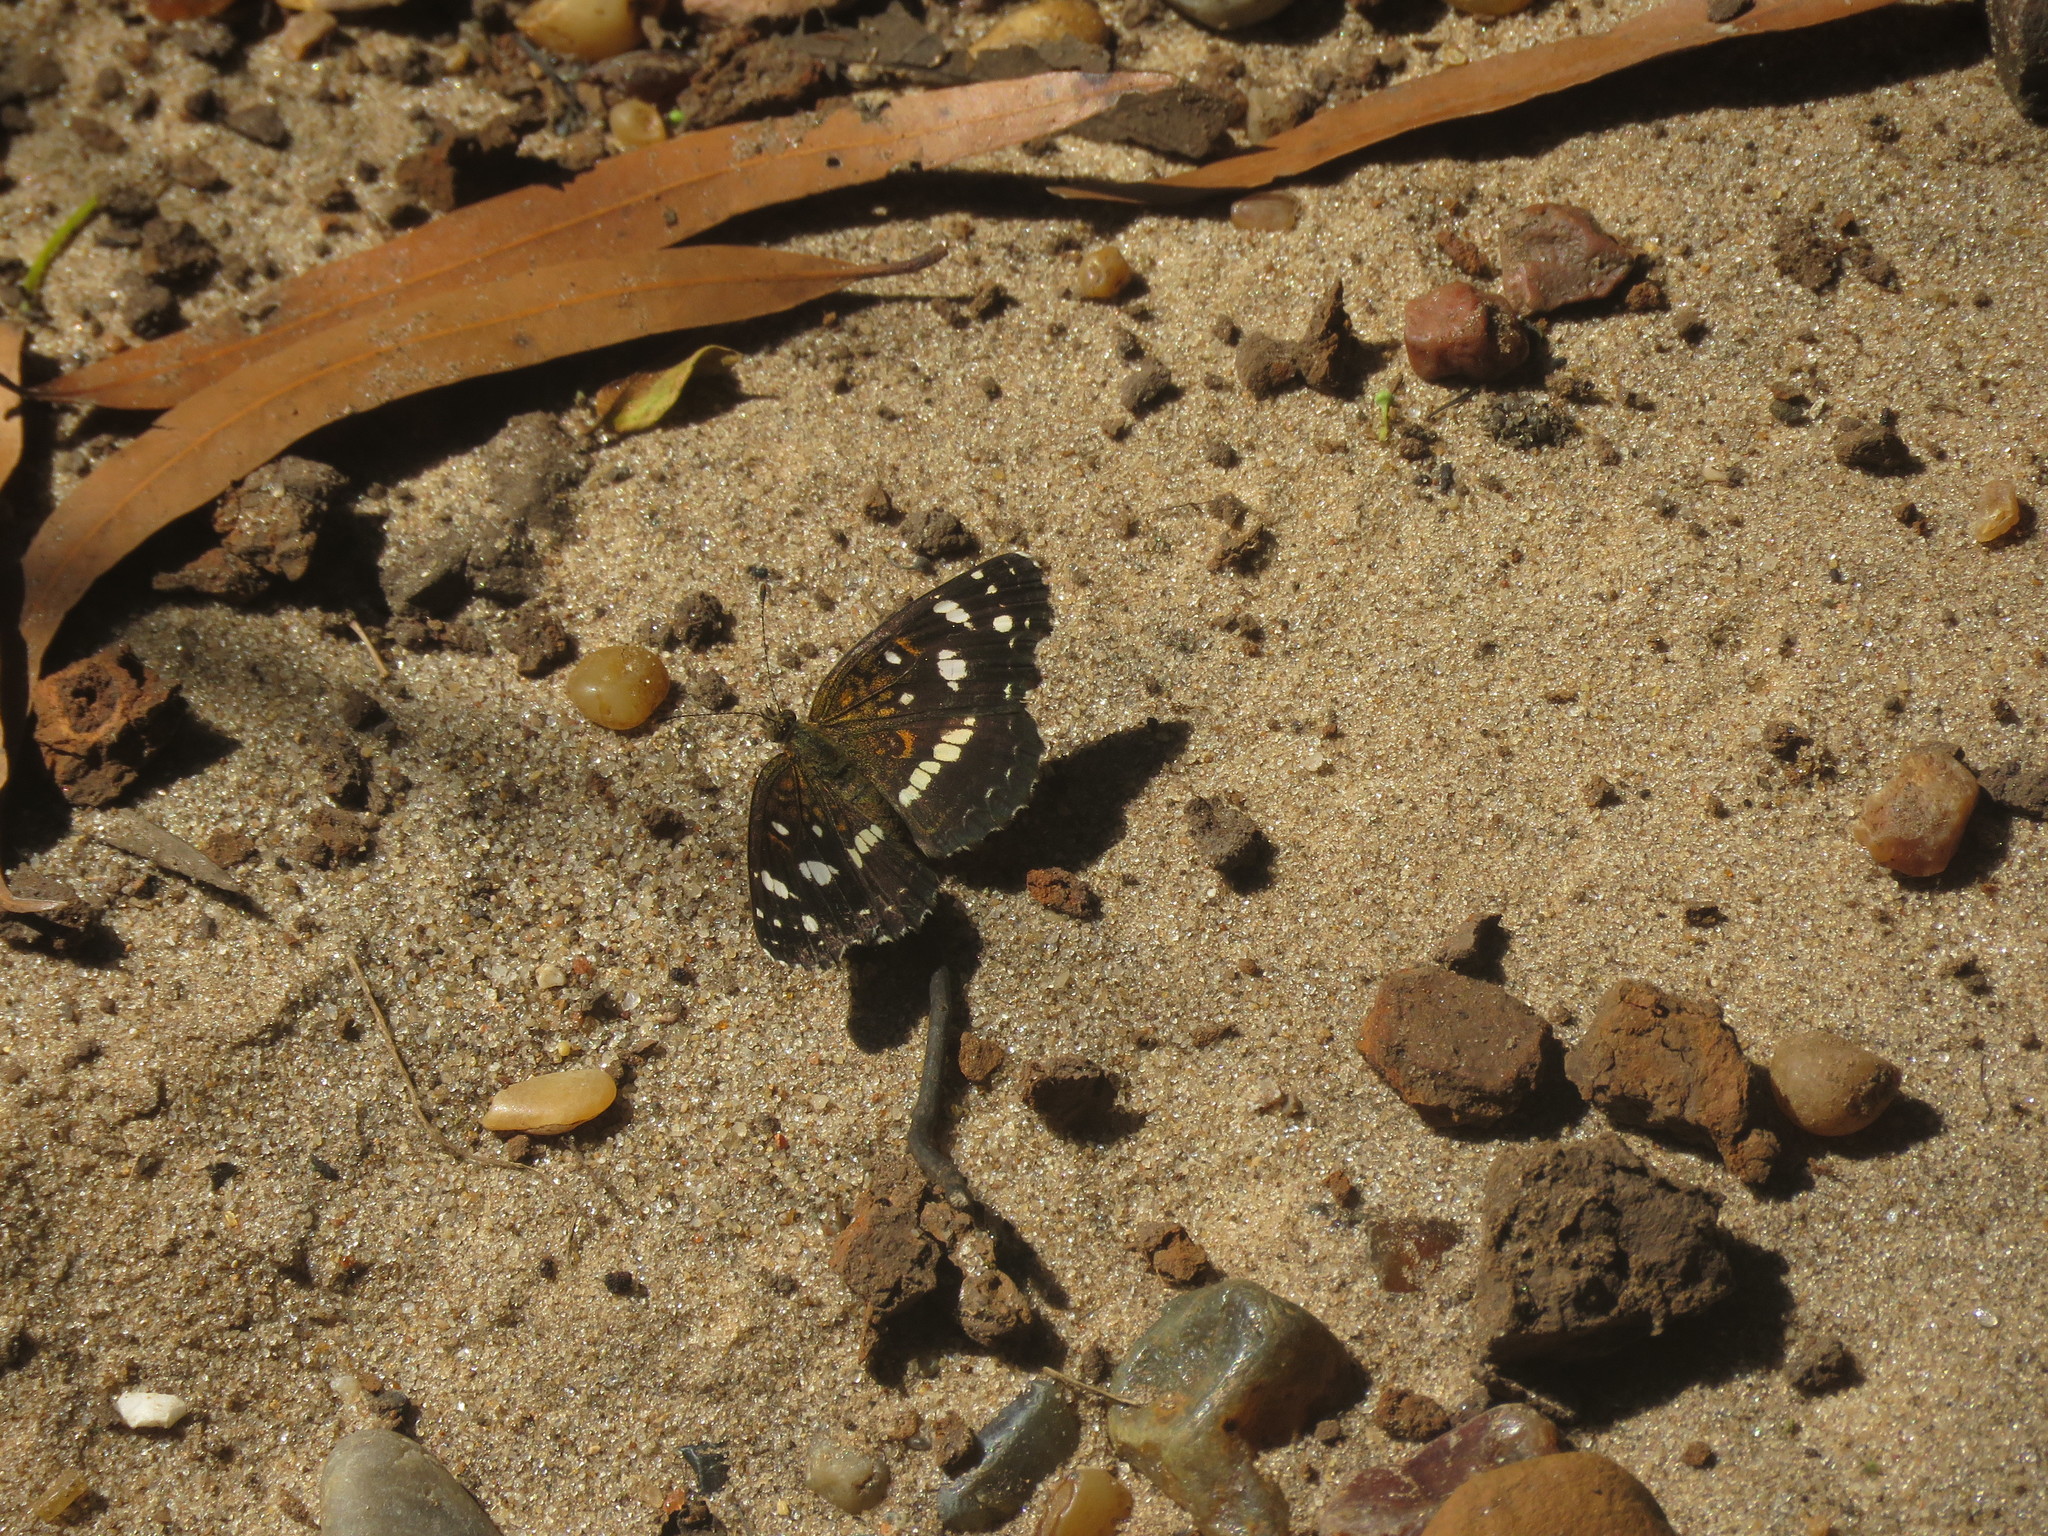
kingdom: Animalia
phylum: Arthropoda
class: Insecta
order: Lepidoptera
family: Nymphalidae
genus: Ortilia
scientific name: Ortilia ithra
